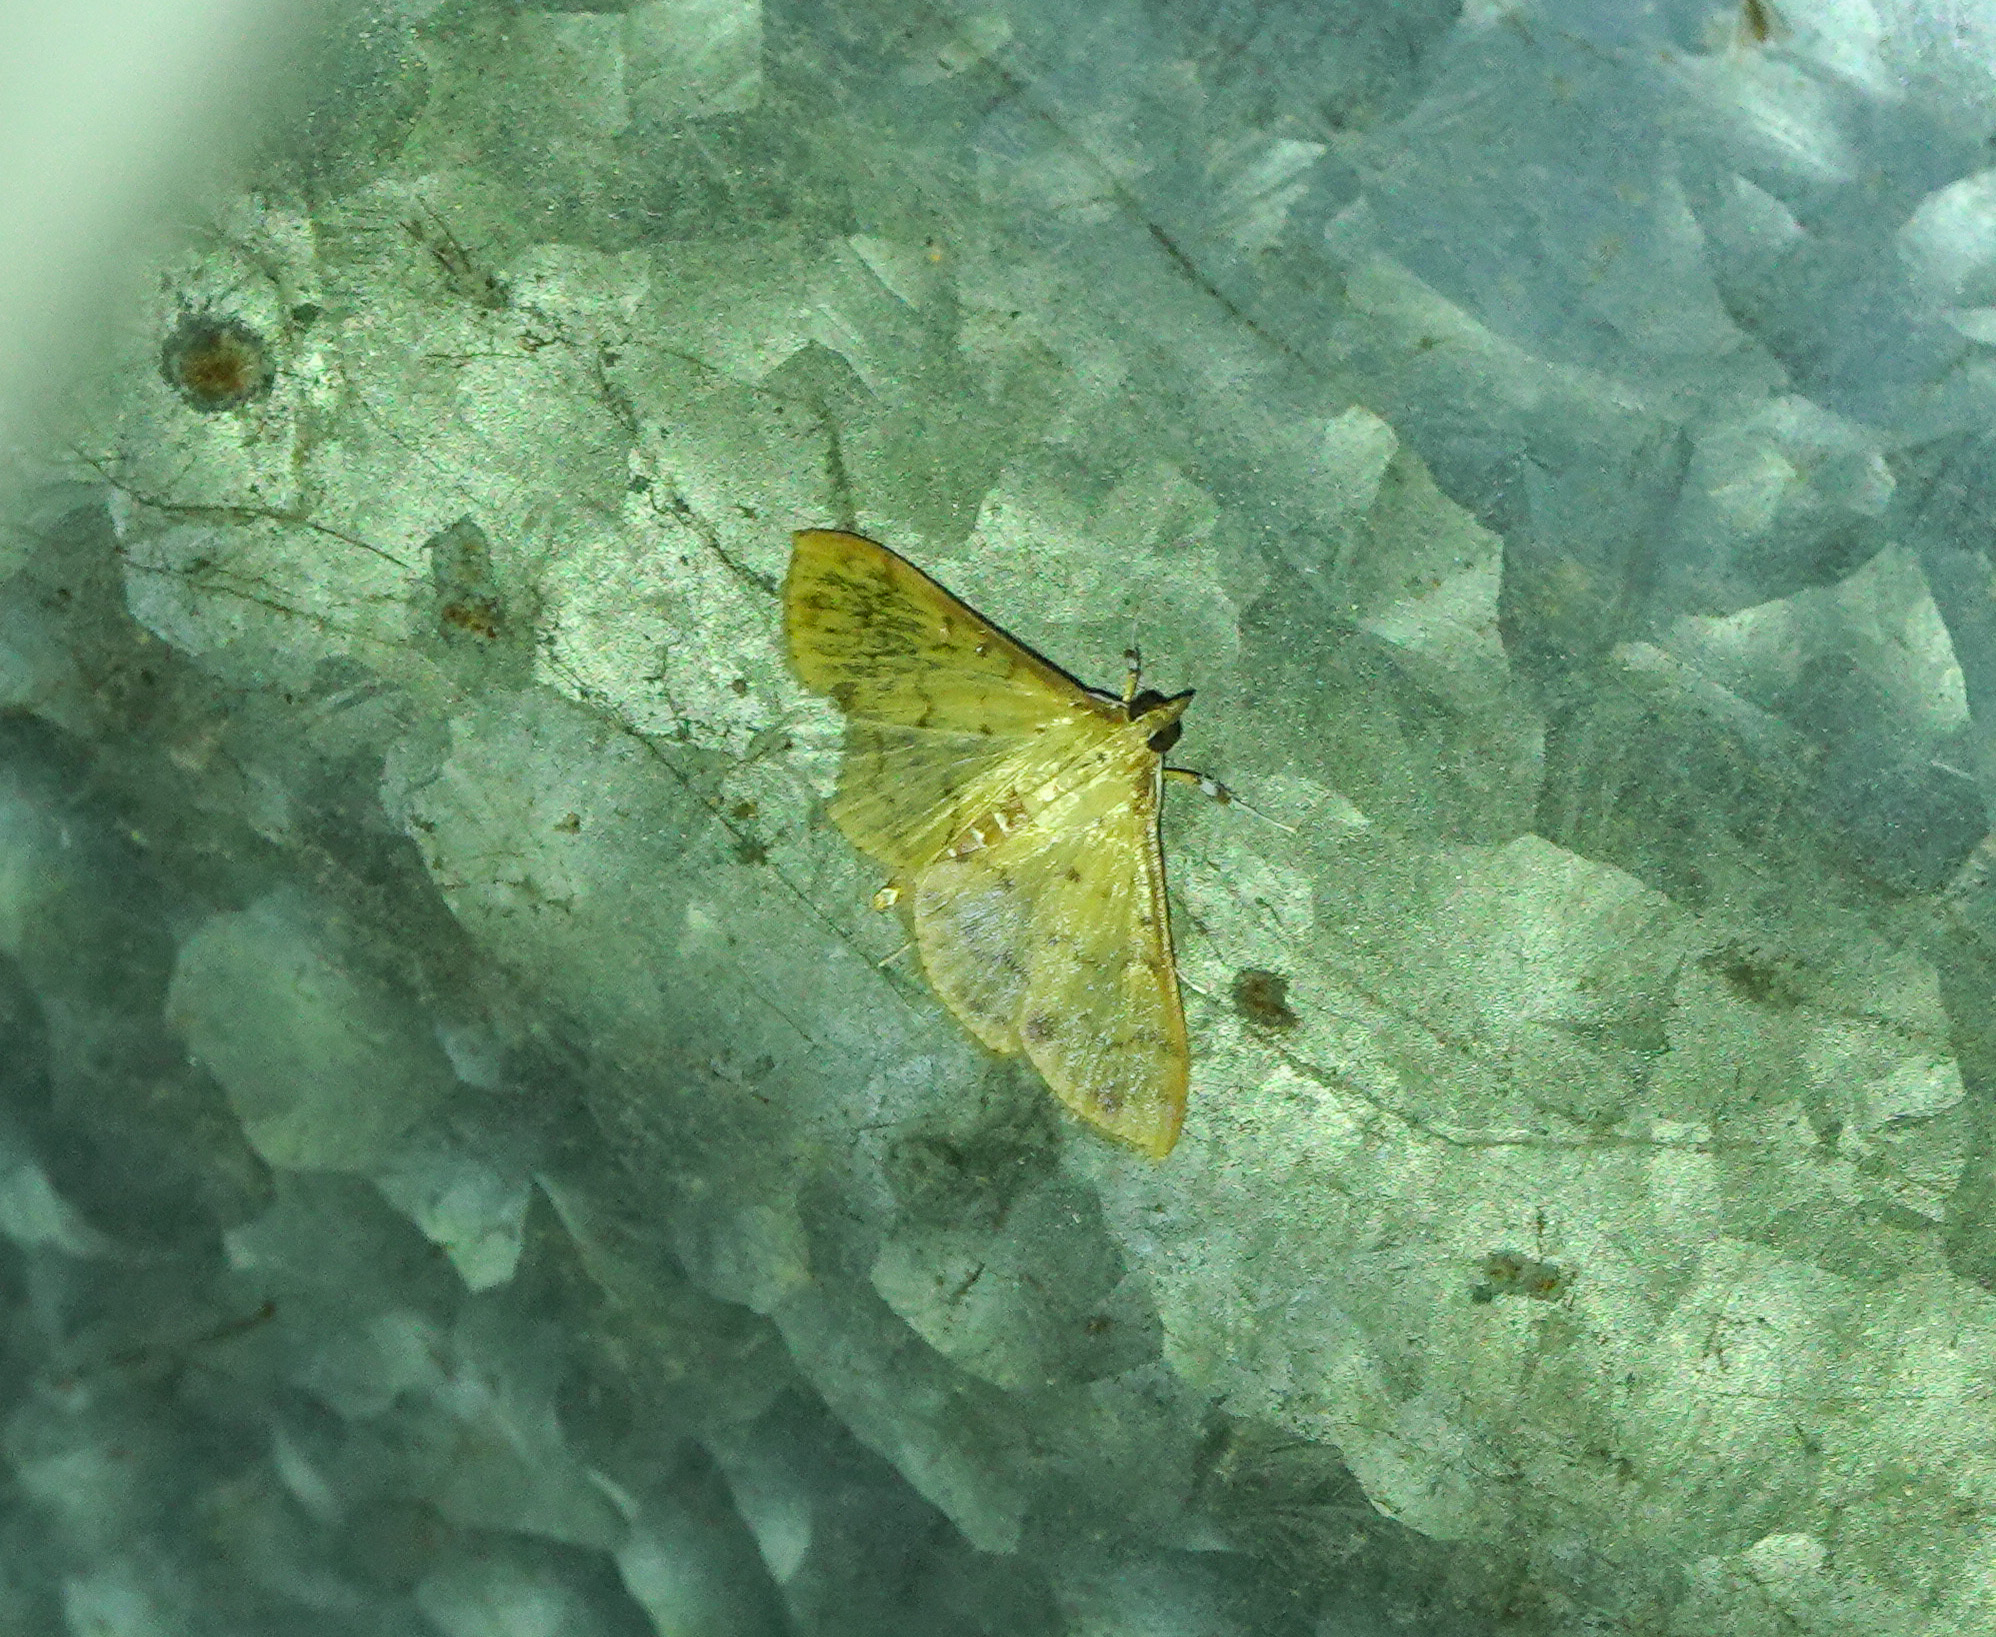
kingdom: Animalia
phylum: Arthropoda
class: Insecta
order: Lepidoptera
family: Crambidae
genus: Conogethes
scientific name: Conogethes punctiferalis
